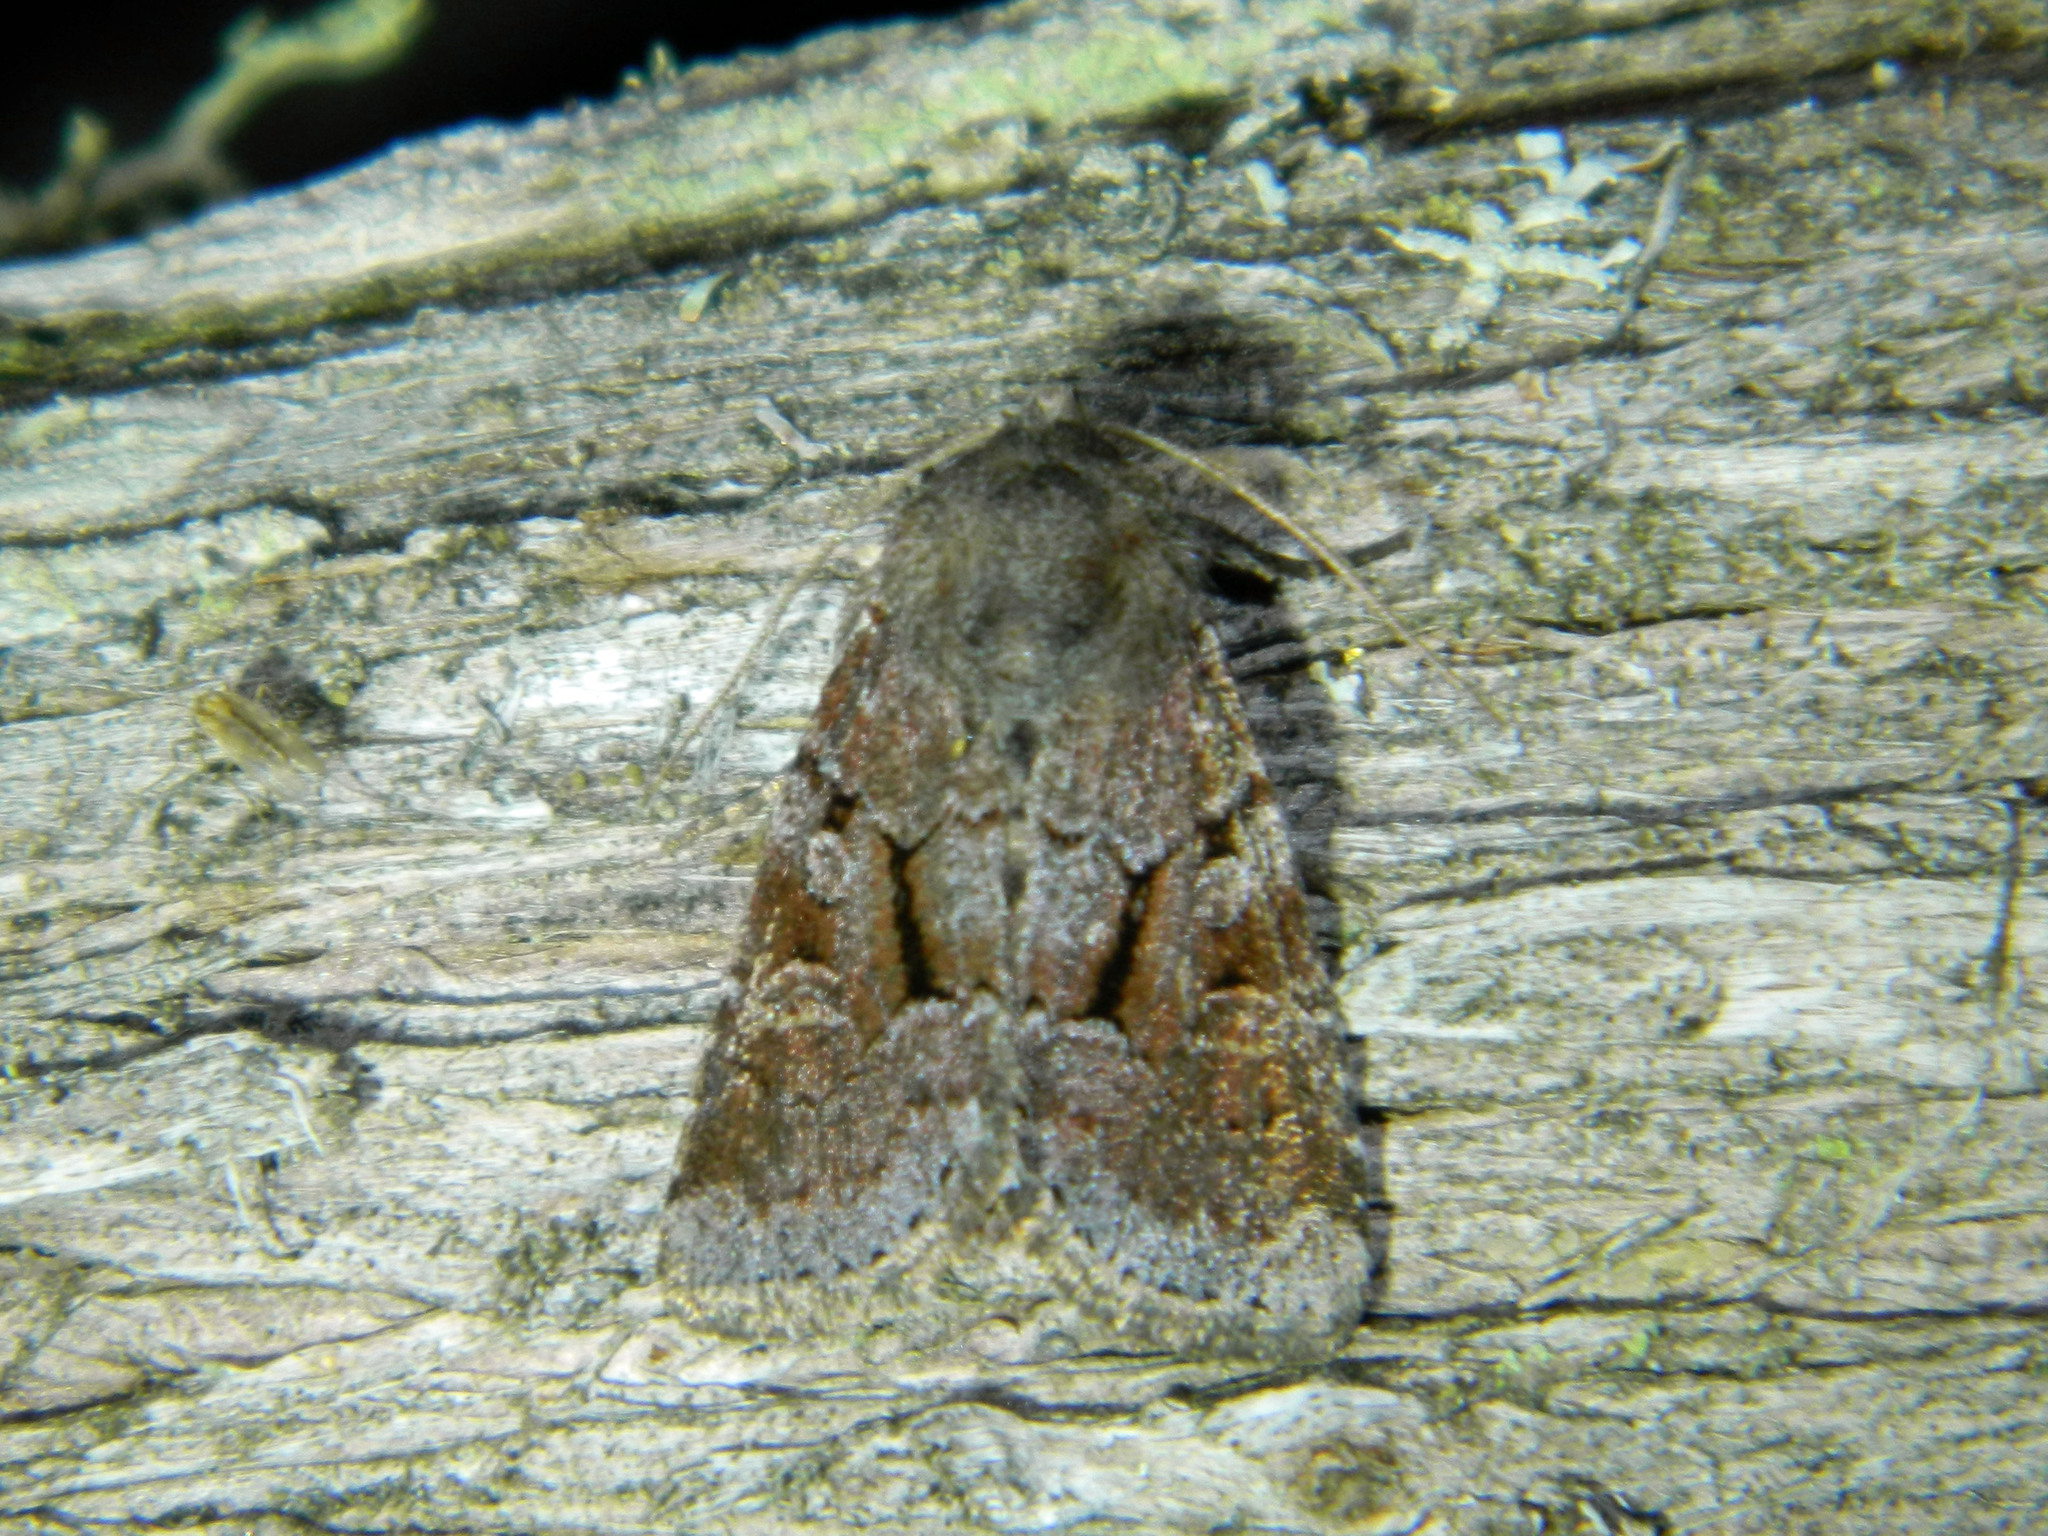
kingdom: Animalia
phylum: Arthropoda
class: Insecta
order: Lepidoptera
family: Noctuidae
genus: Oligia
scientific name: Oligia minuscula
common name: Small brocade
